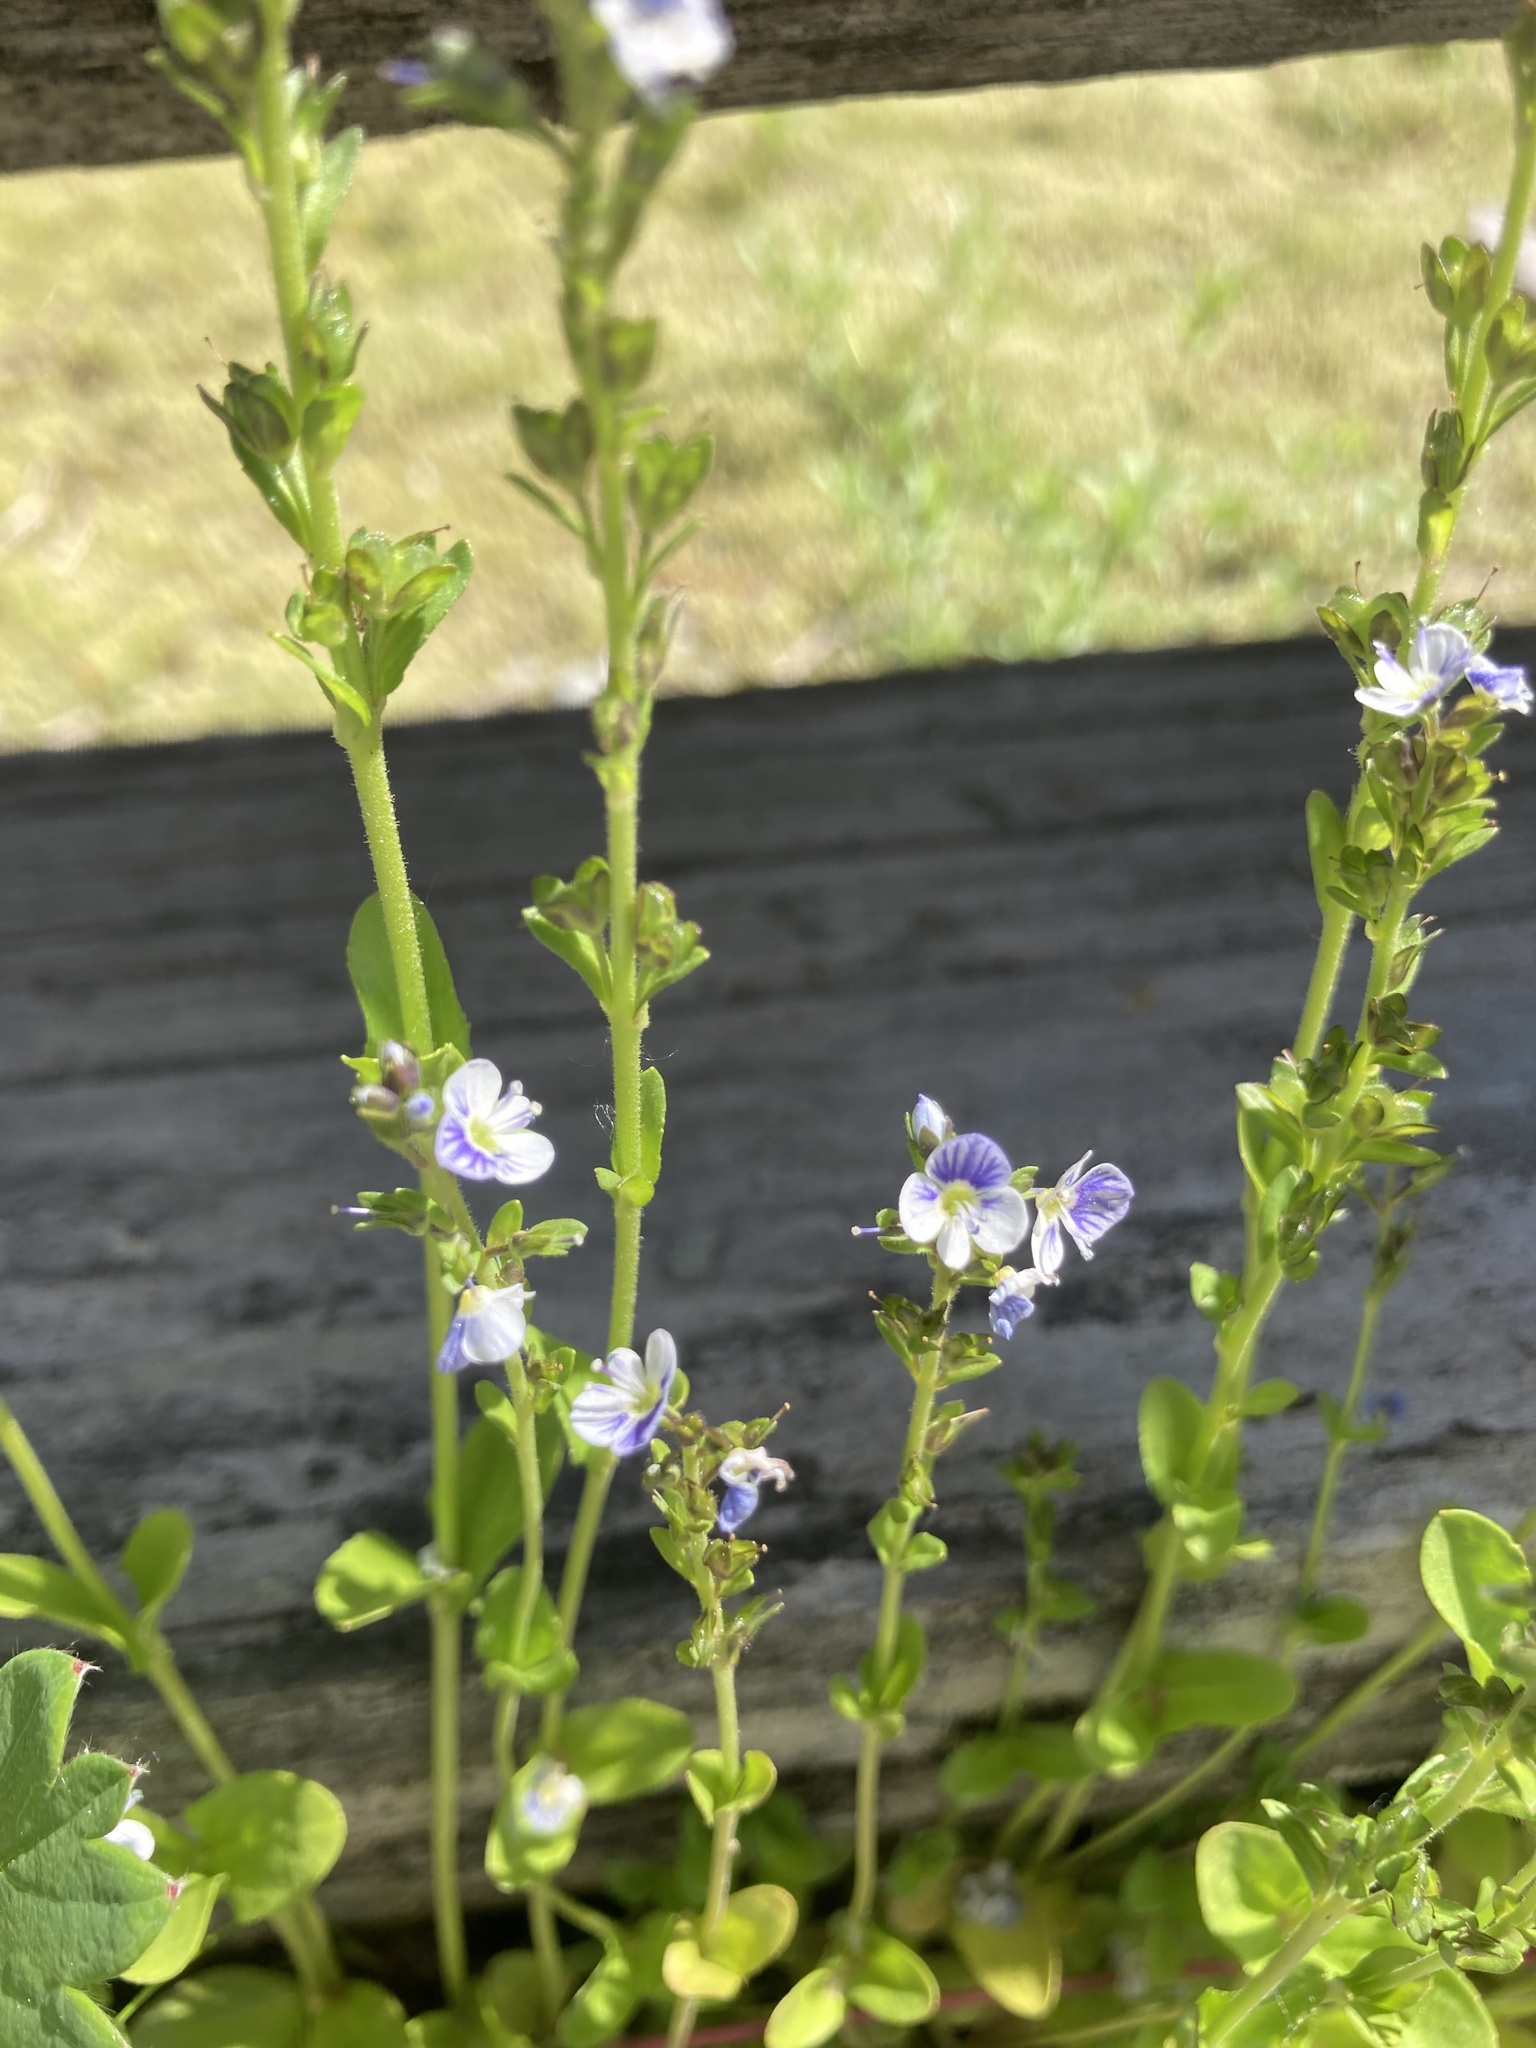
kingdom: Plantae
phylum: Tracheophyta
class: Magnoliopsida
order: Lamiales
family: Plantaginaceae
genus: Veronica
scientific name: Veronica serpyllifolia
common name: Thyme-leaved speedwell
